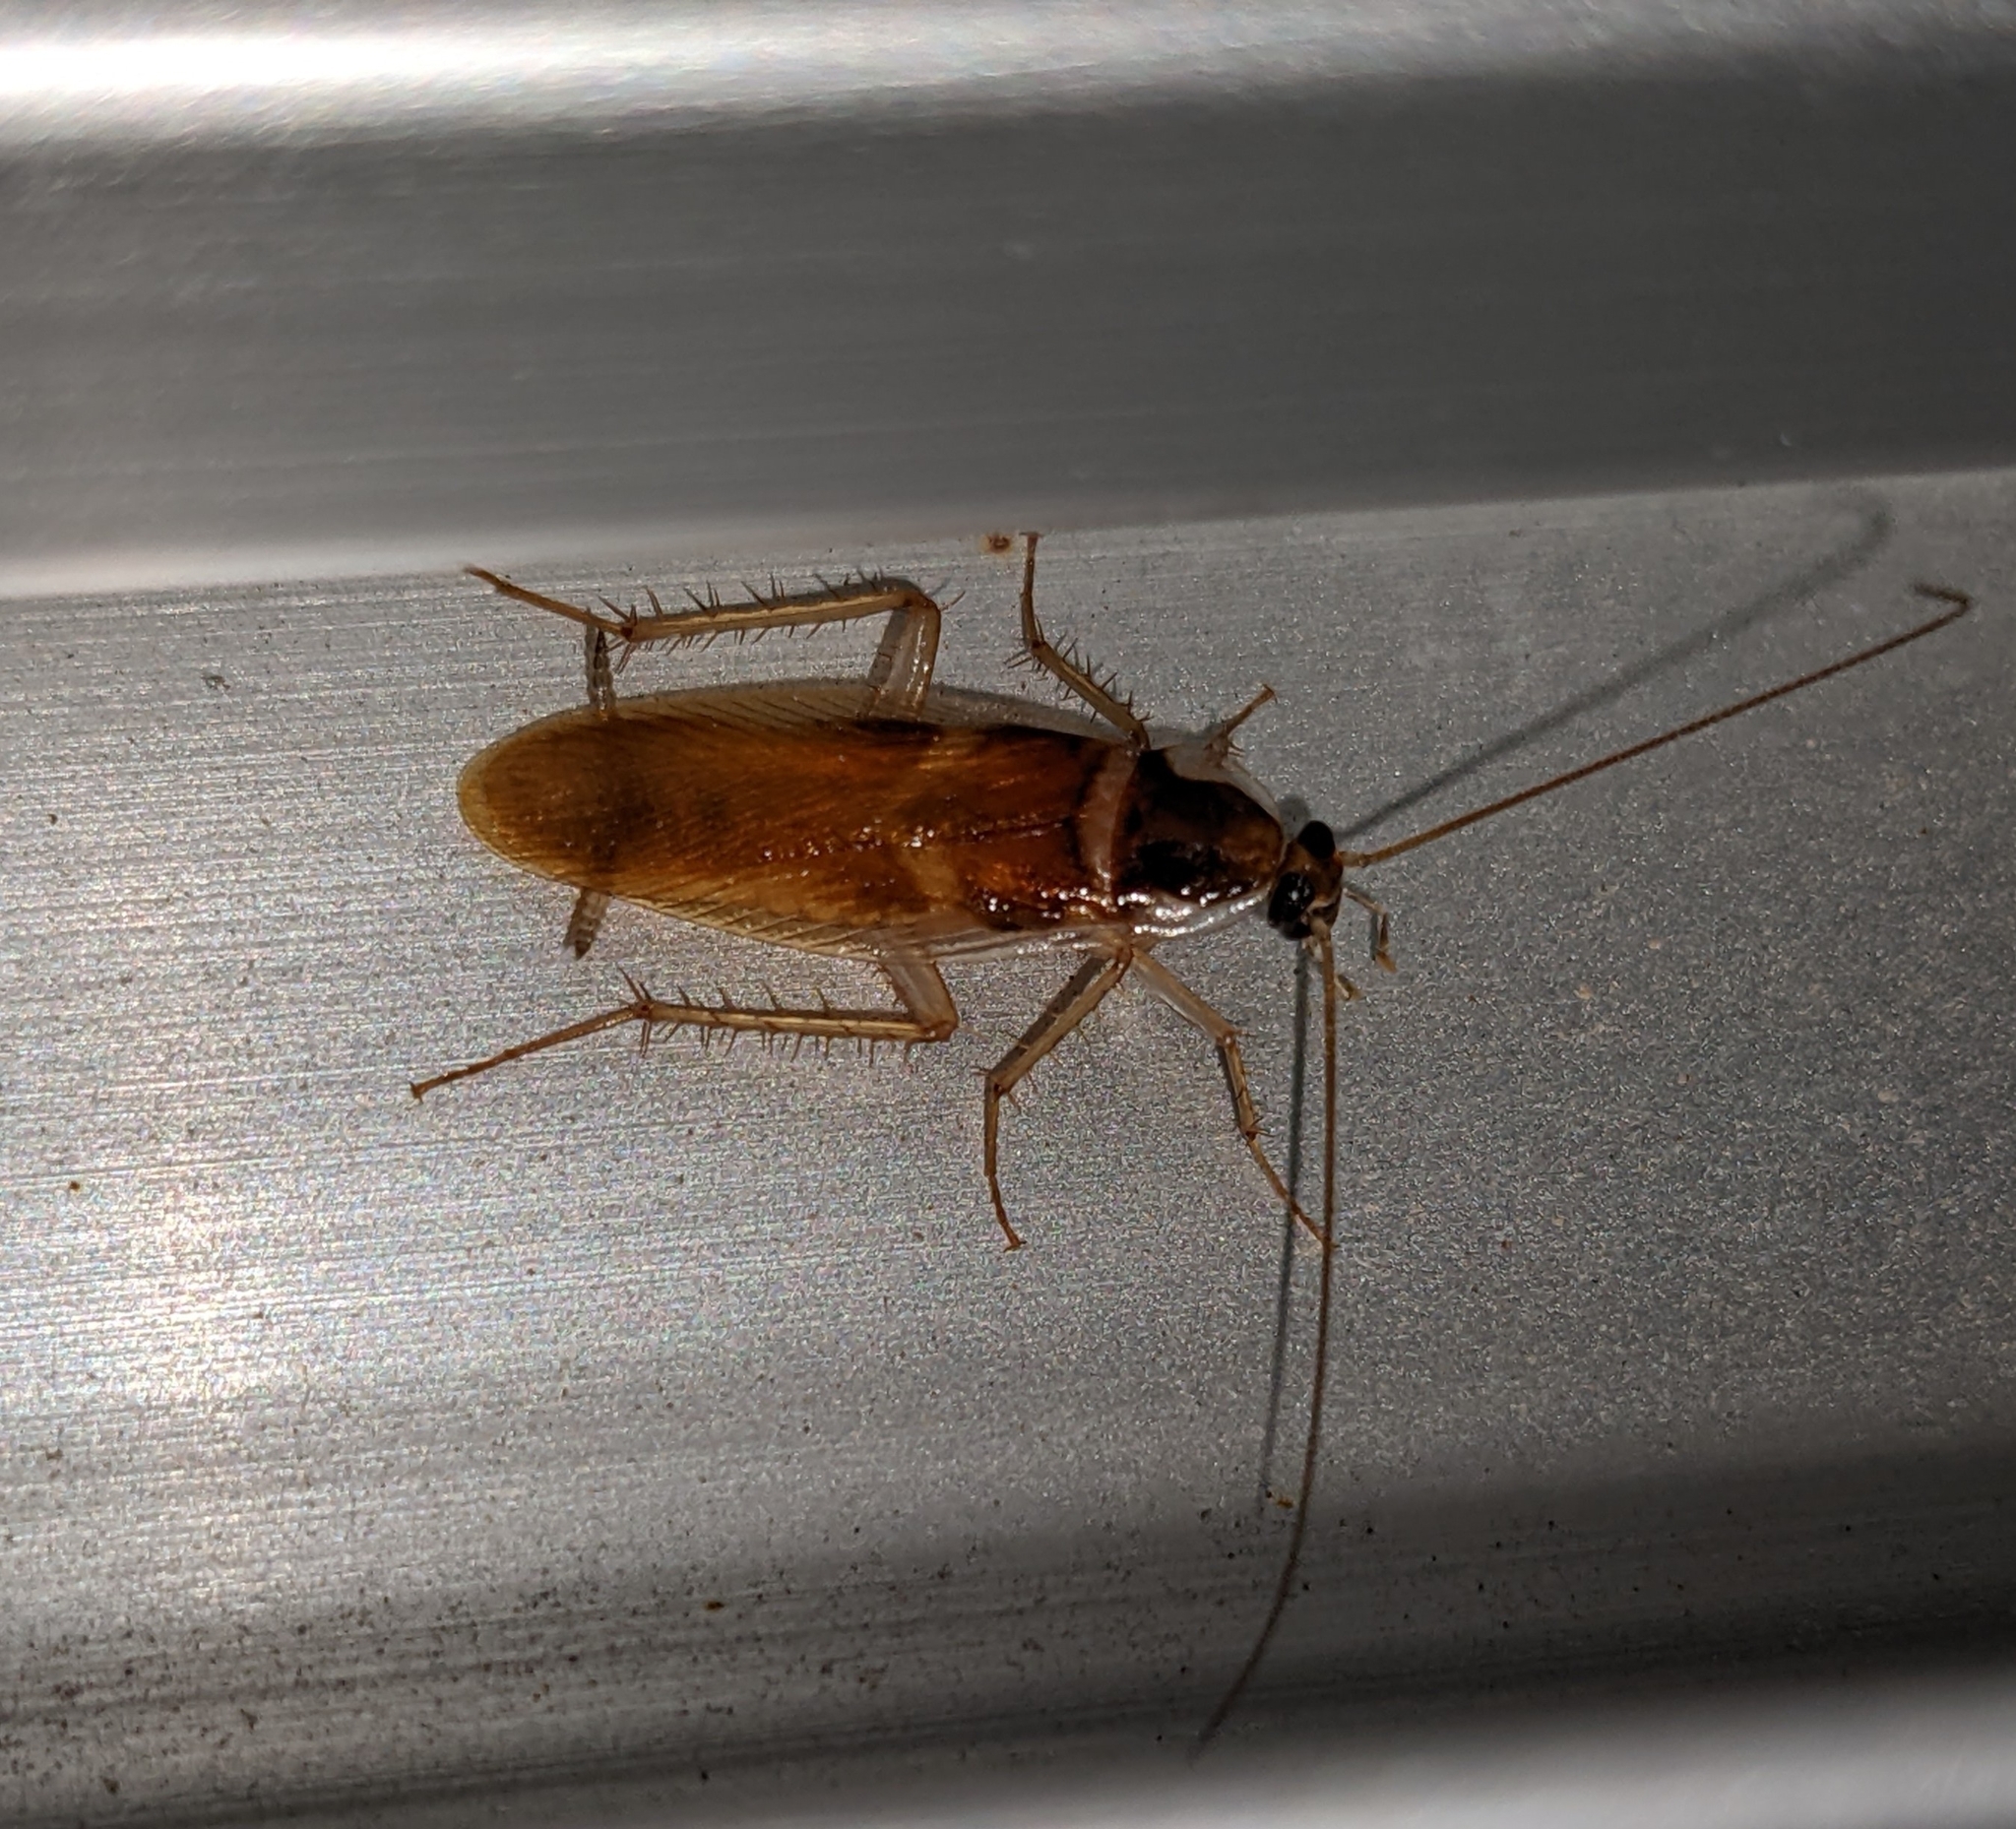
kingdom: Animalia
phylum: Arthropoda
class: Insecta
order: Blattodea
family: Ectobiidae
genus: Supella
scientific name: Supella longipalpa
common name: Brown-banded cockroach
